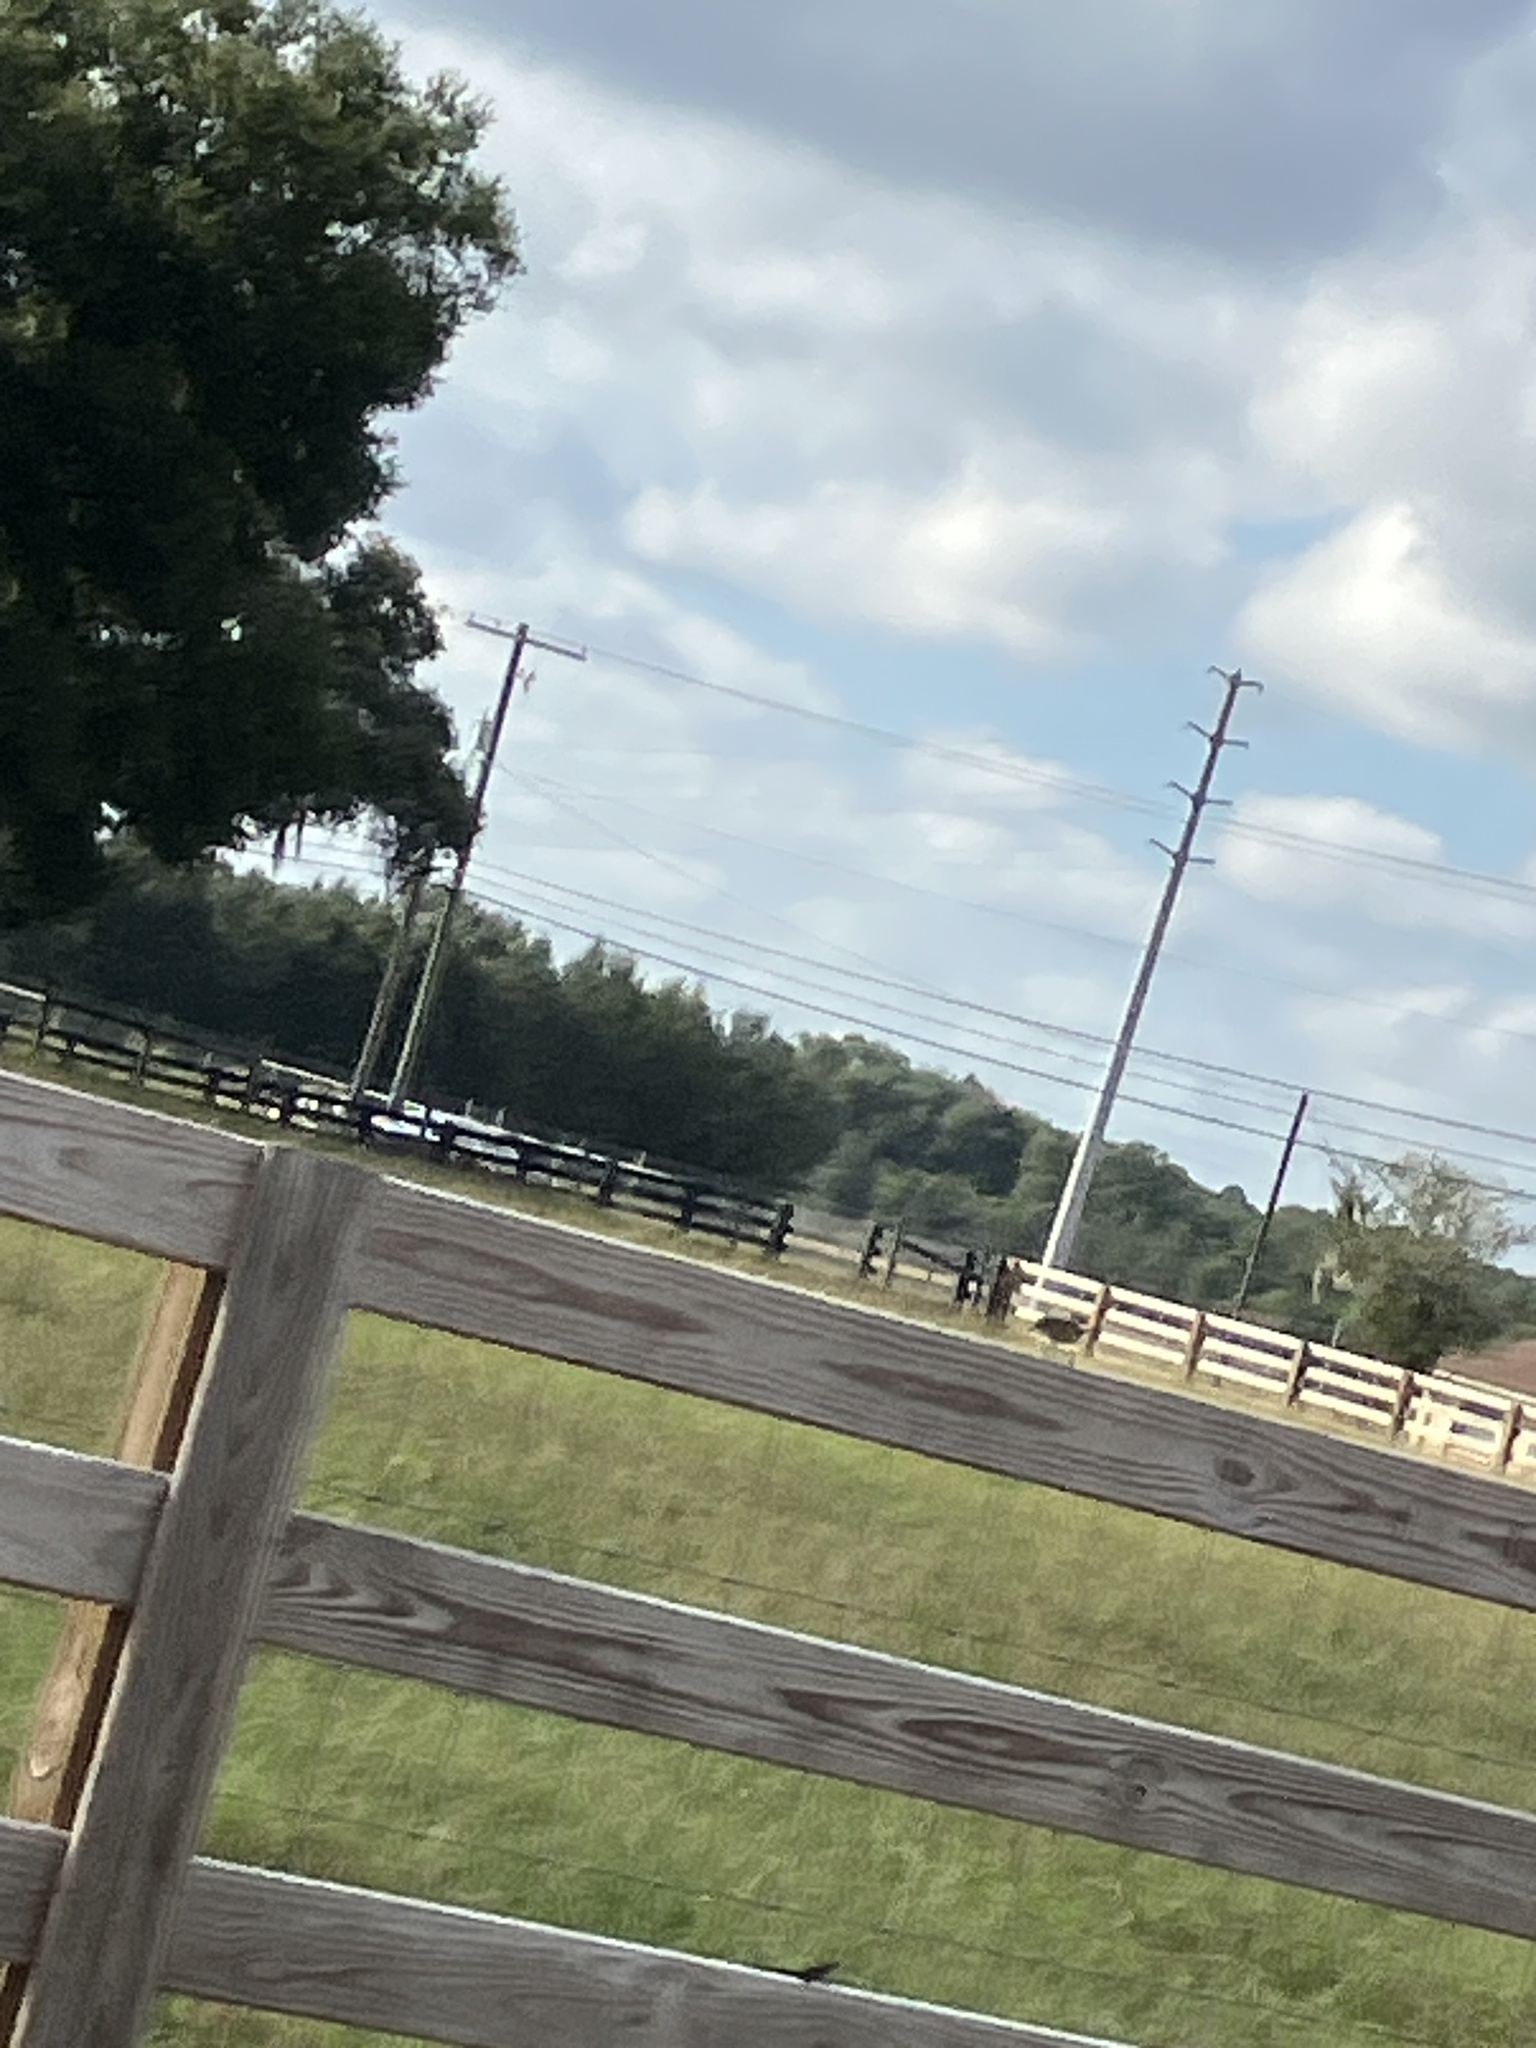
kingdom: Animalia
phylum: Chordata
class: Aves
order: Passeriformes
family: Parulidae
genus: Setophaga
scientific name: Setophaga palmarum
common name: Palm warbler
